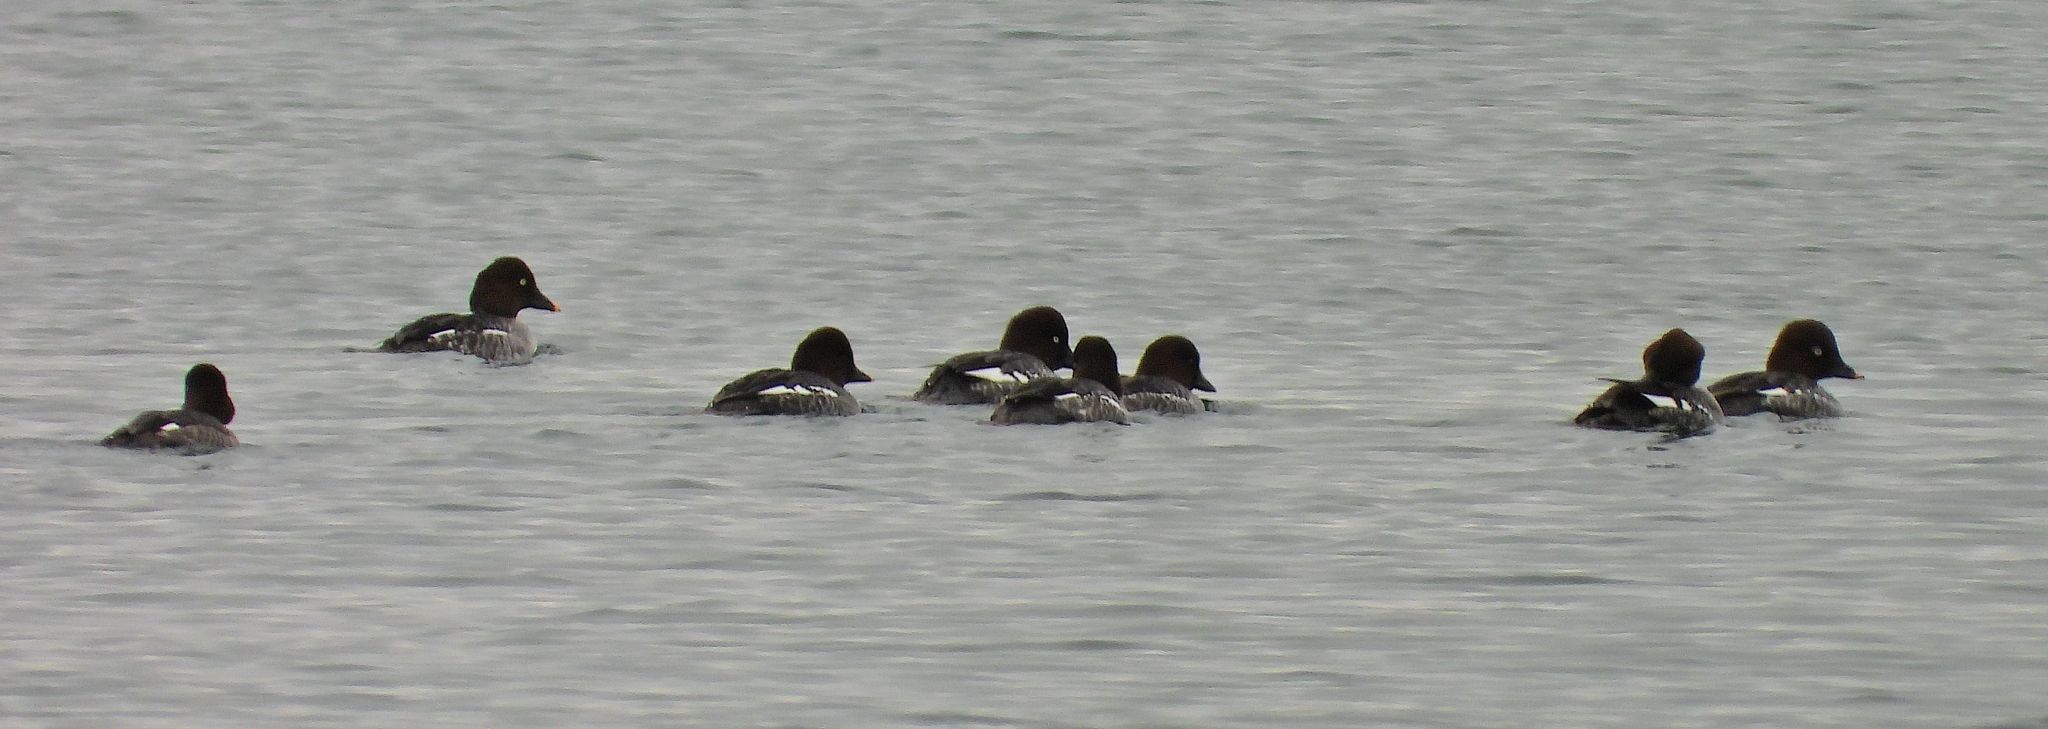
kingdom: Animalia
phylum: Chordata
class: Aves
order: Anseriformes
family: Anatidae
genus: Bucephala
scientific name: Bucephala clangula
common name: Common goldeneye
